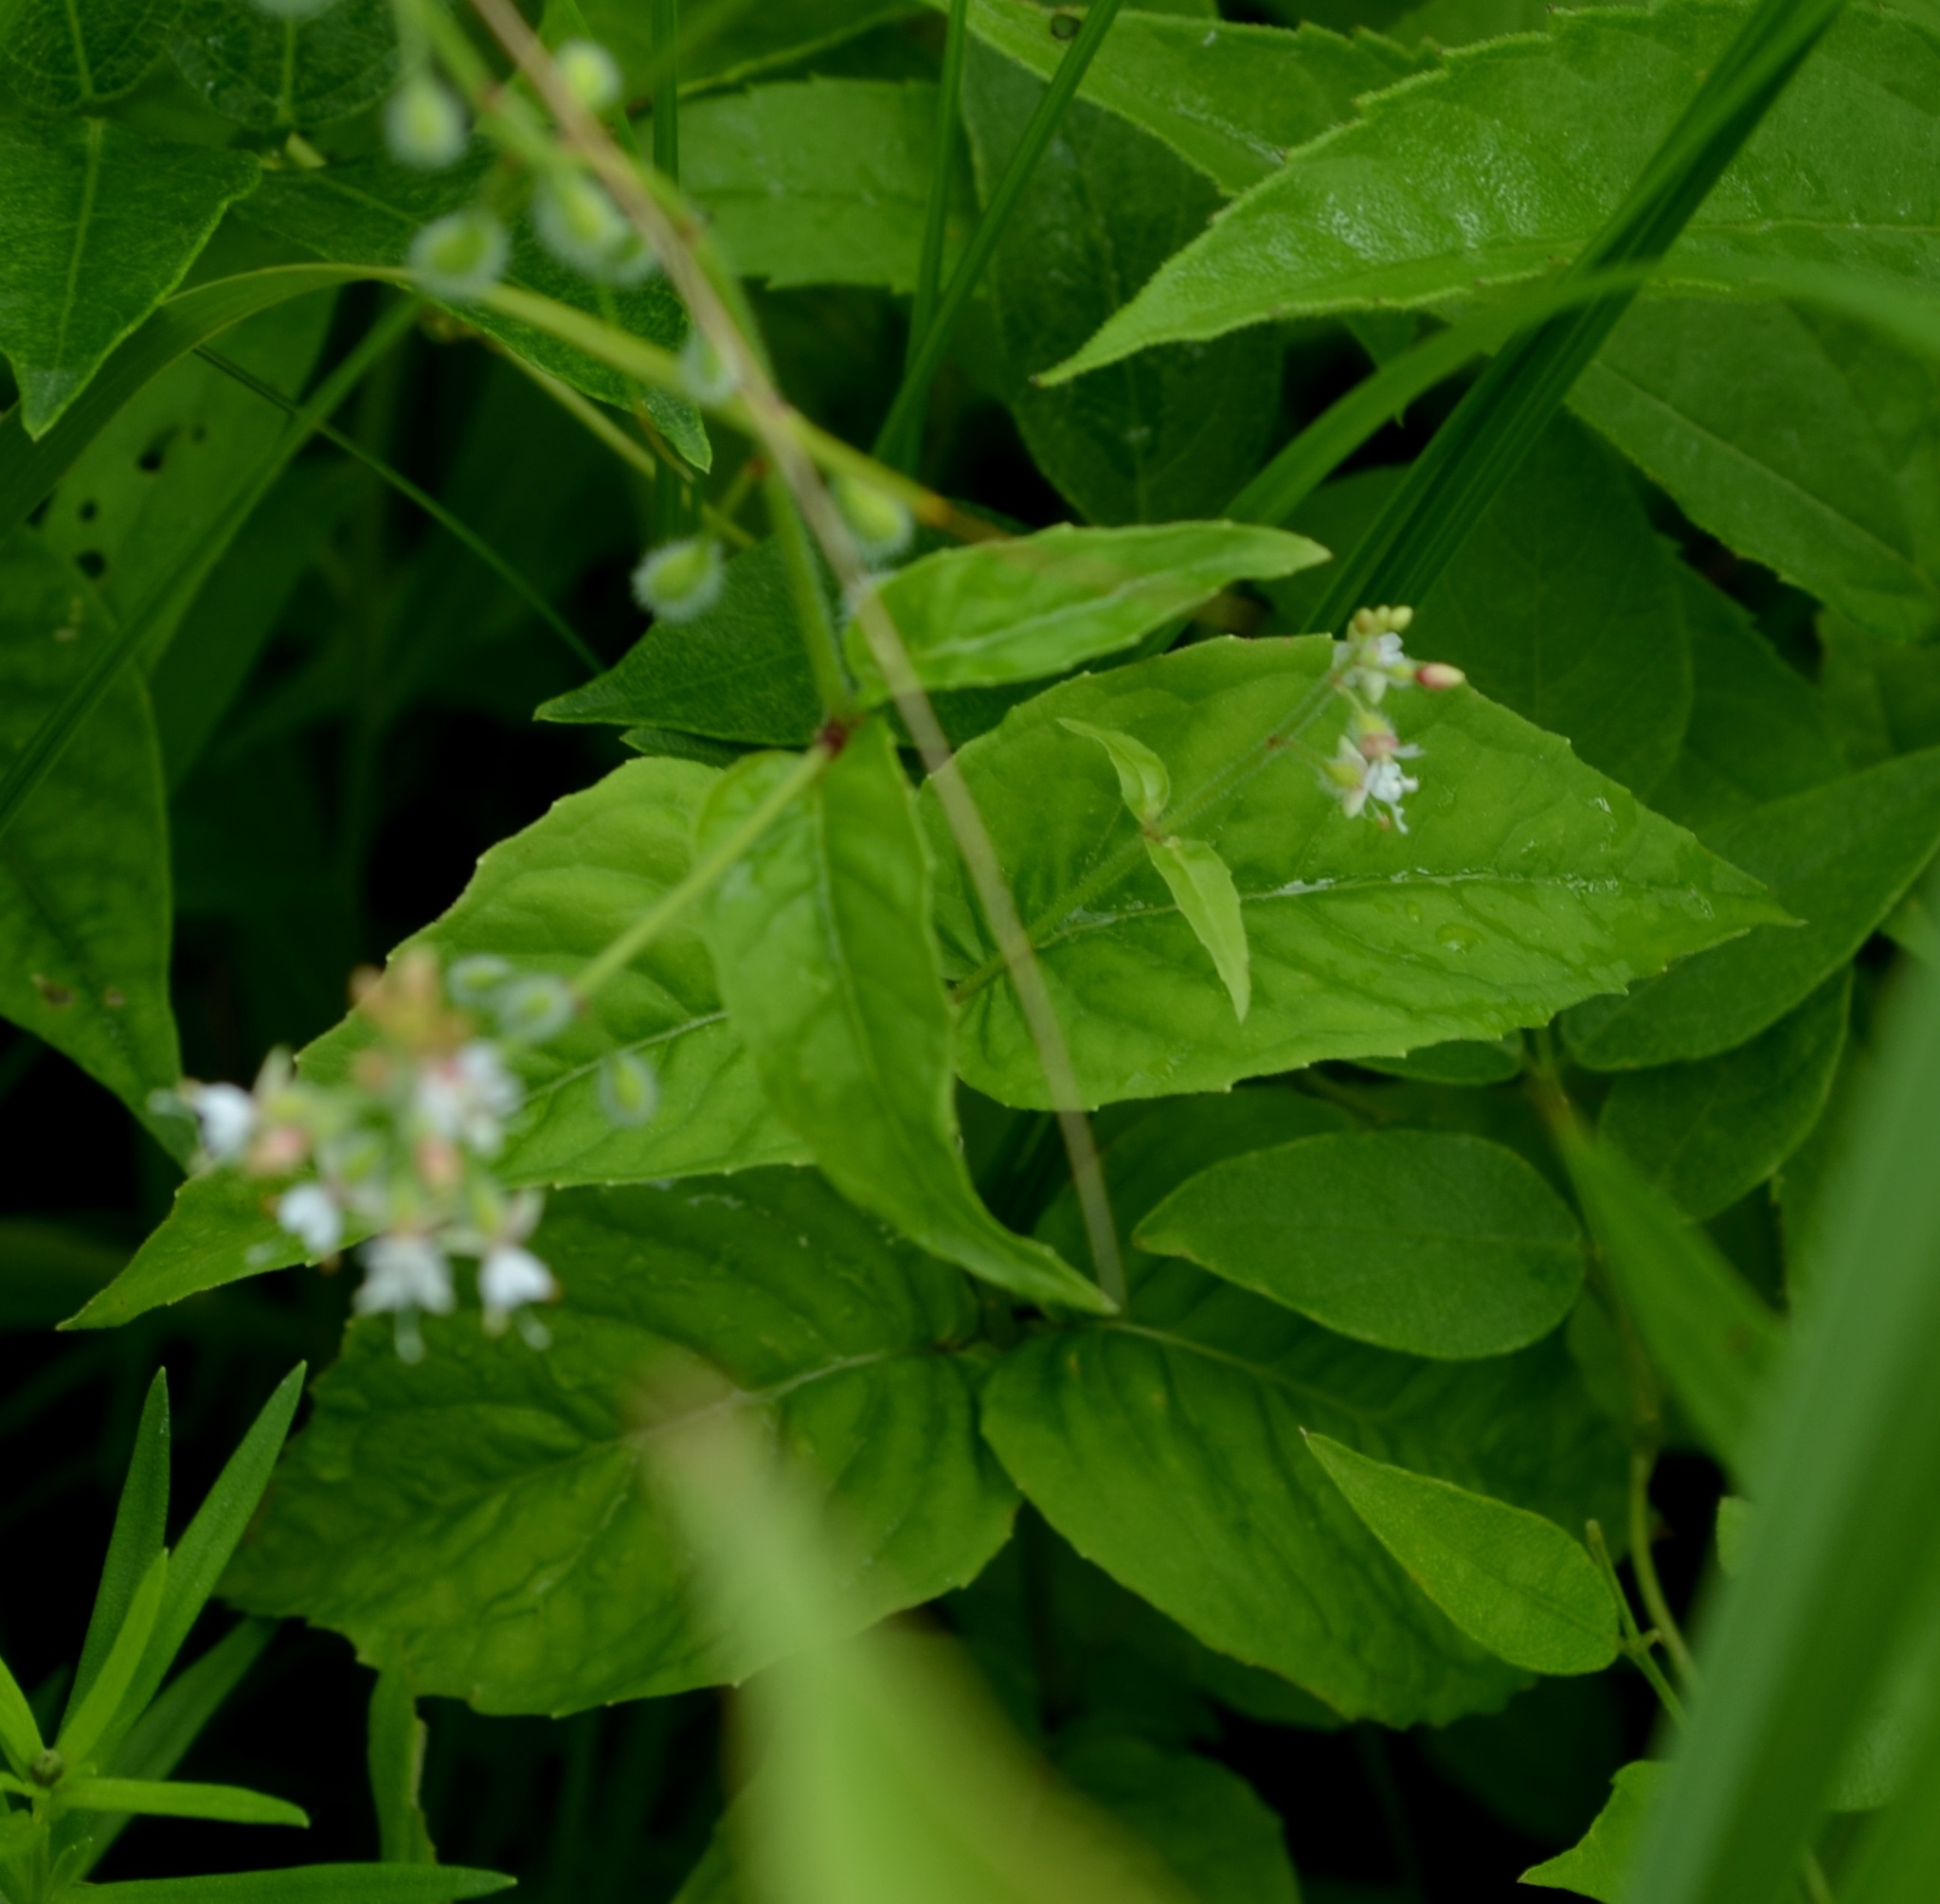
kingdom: Plantae
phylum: Tracheophyta
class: Magnoliopsida
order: Myrtales
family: Onagraceae
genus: Circaea
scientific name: Circaea canadensis
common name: Broad-leaved enchanter's nightshade
